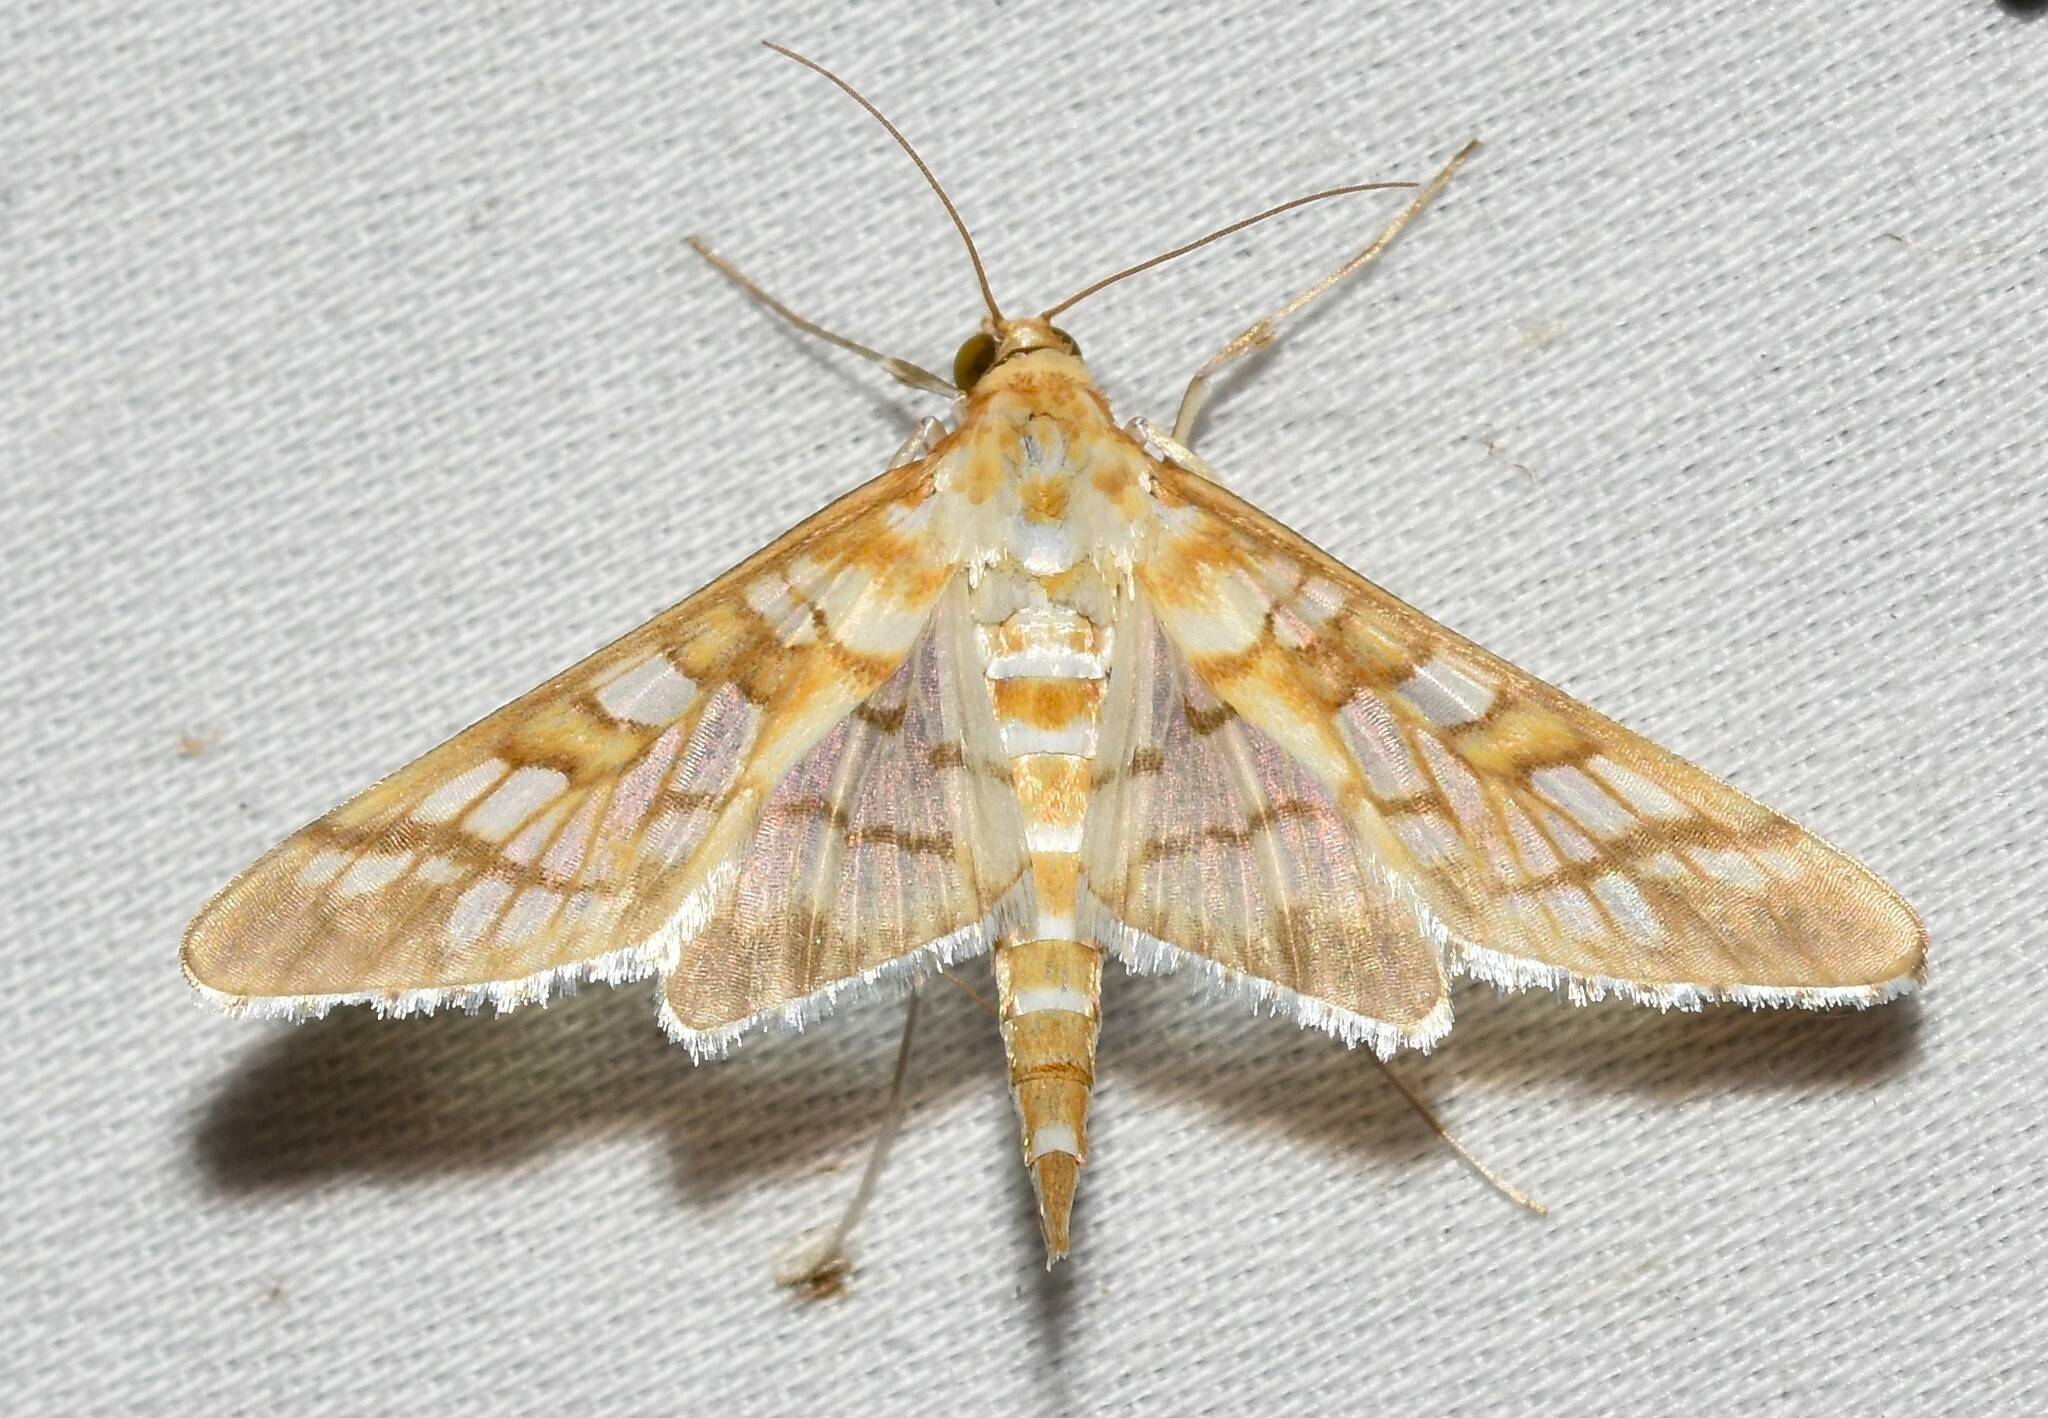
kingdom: Animalia
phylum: Arthropoda
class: Insecta
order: Lepidoptera
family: Crambidae
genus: Epipagis
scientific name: Epipagis fenestralis
